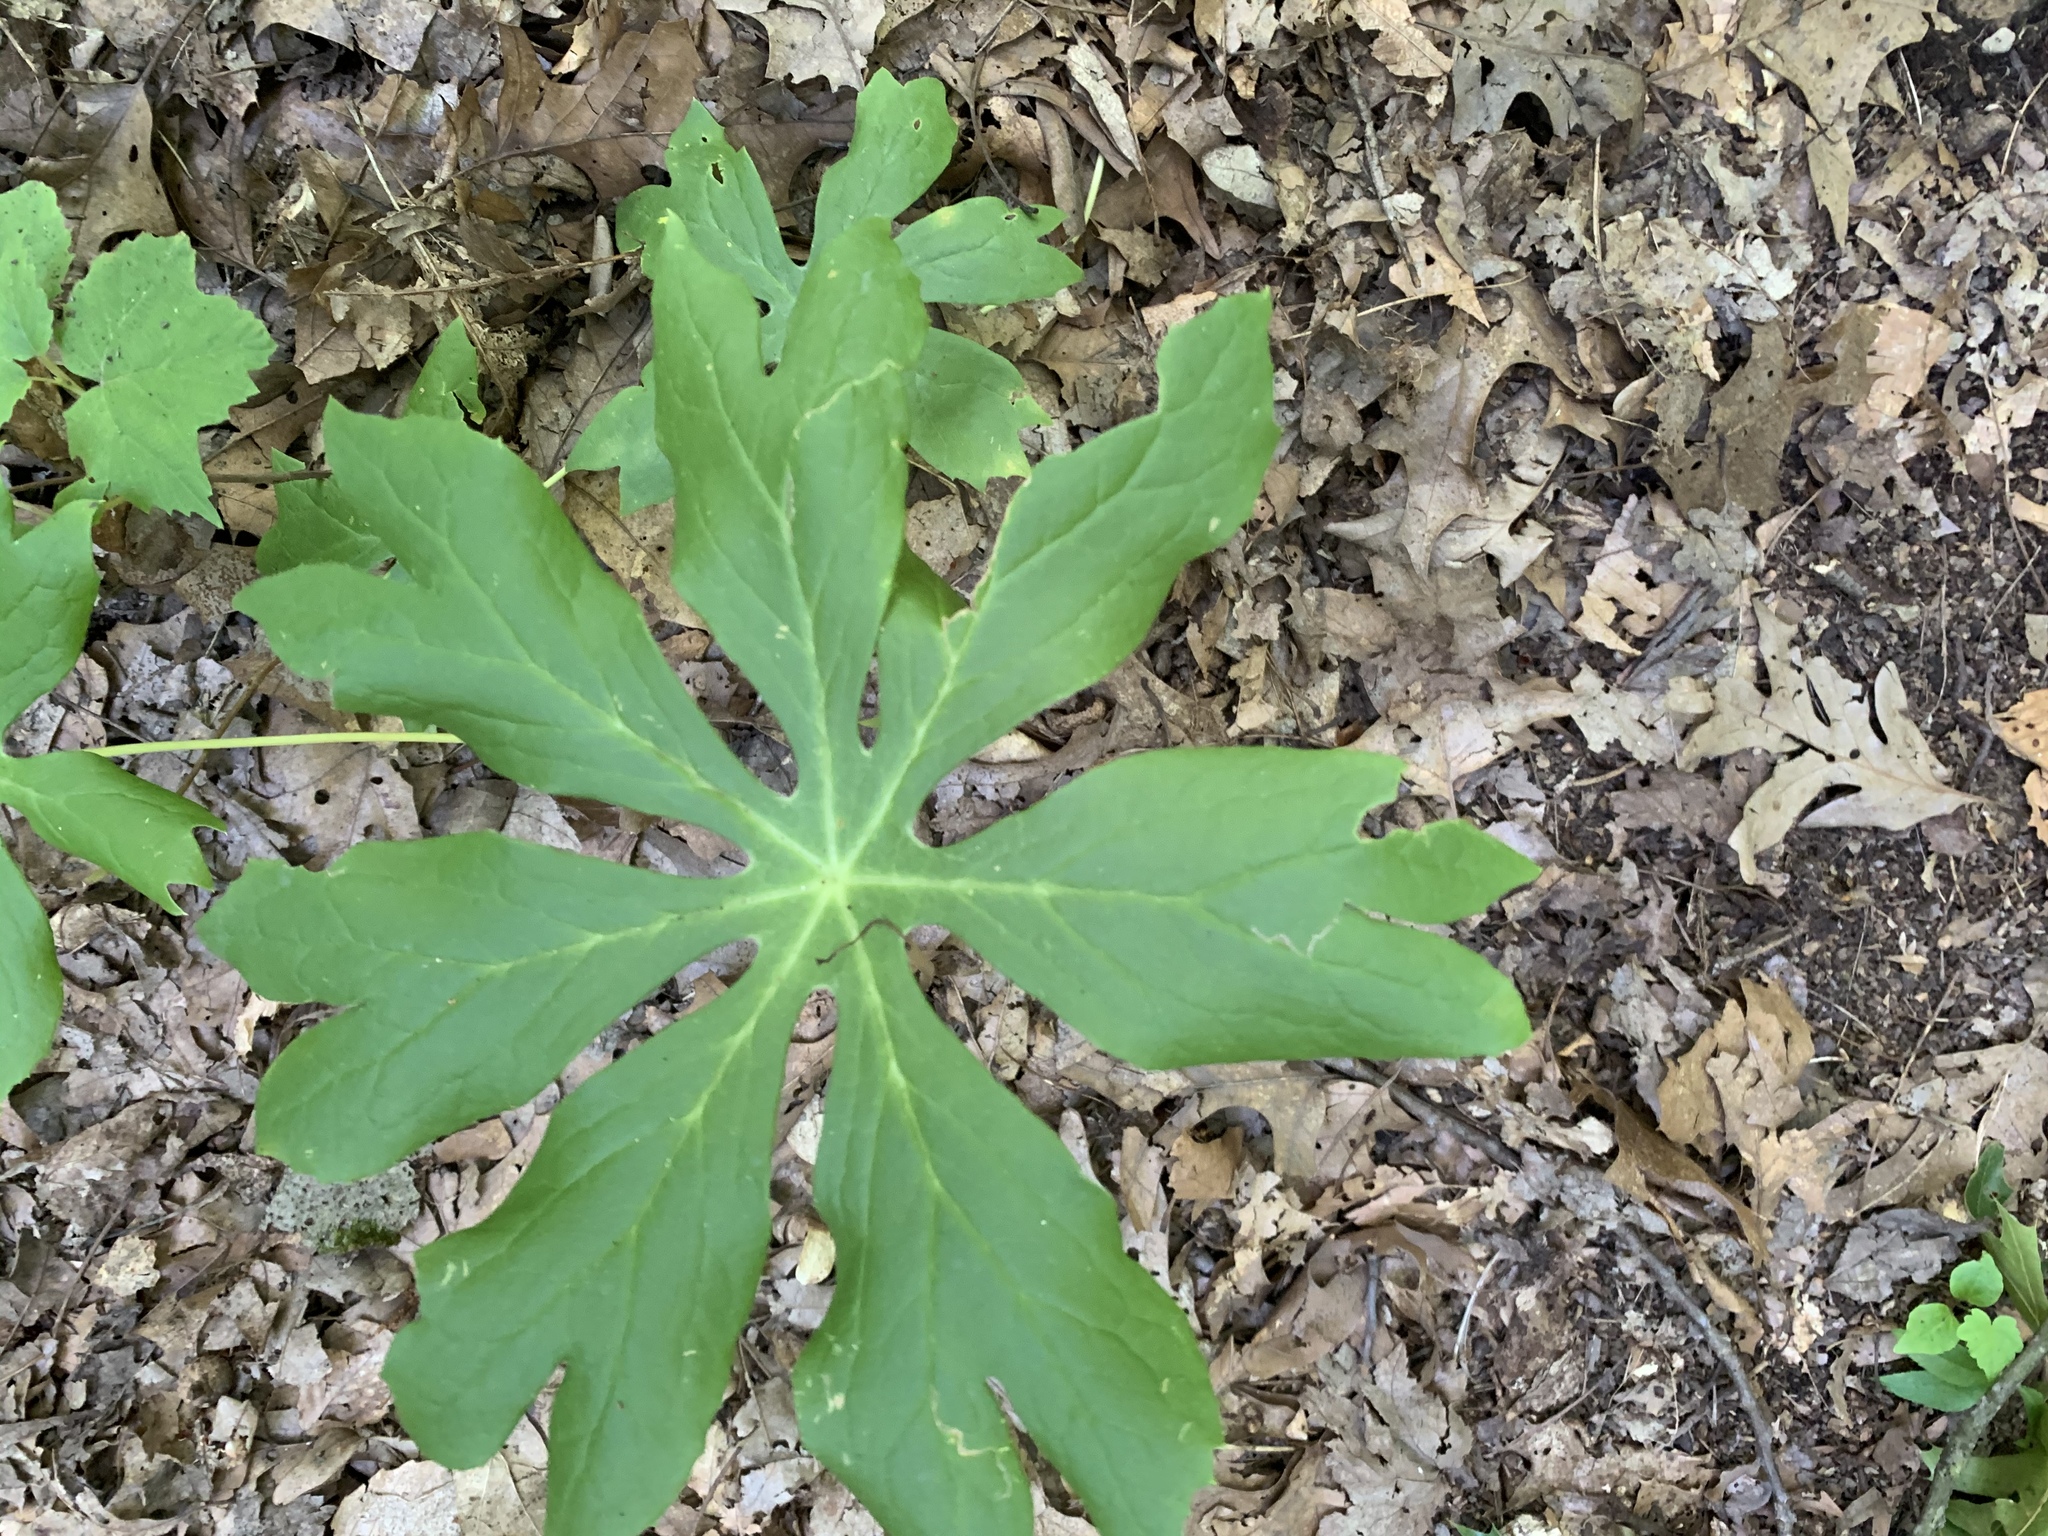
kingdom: Plantae
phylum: Tracheophyta
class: Magnoliopsida
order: Ranunculales
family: Berberidaceae
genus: Podophyllum
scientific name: Podophyllum peltatum
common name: Wild mandrake
